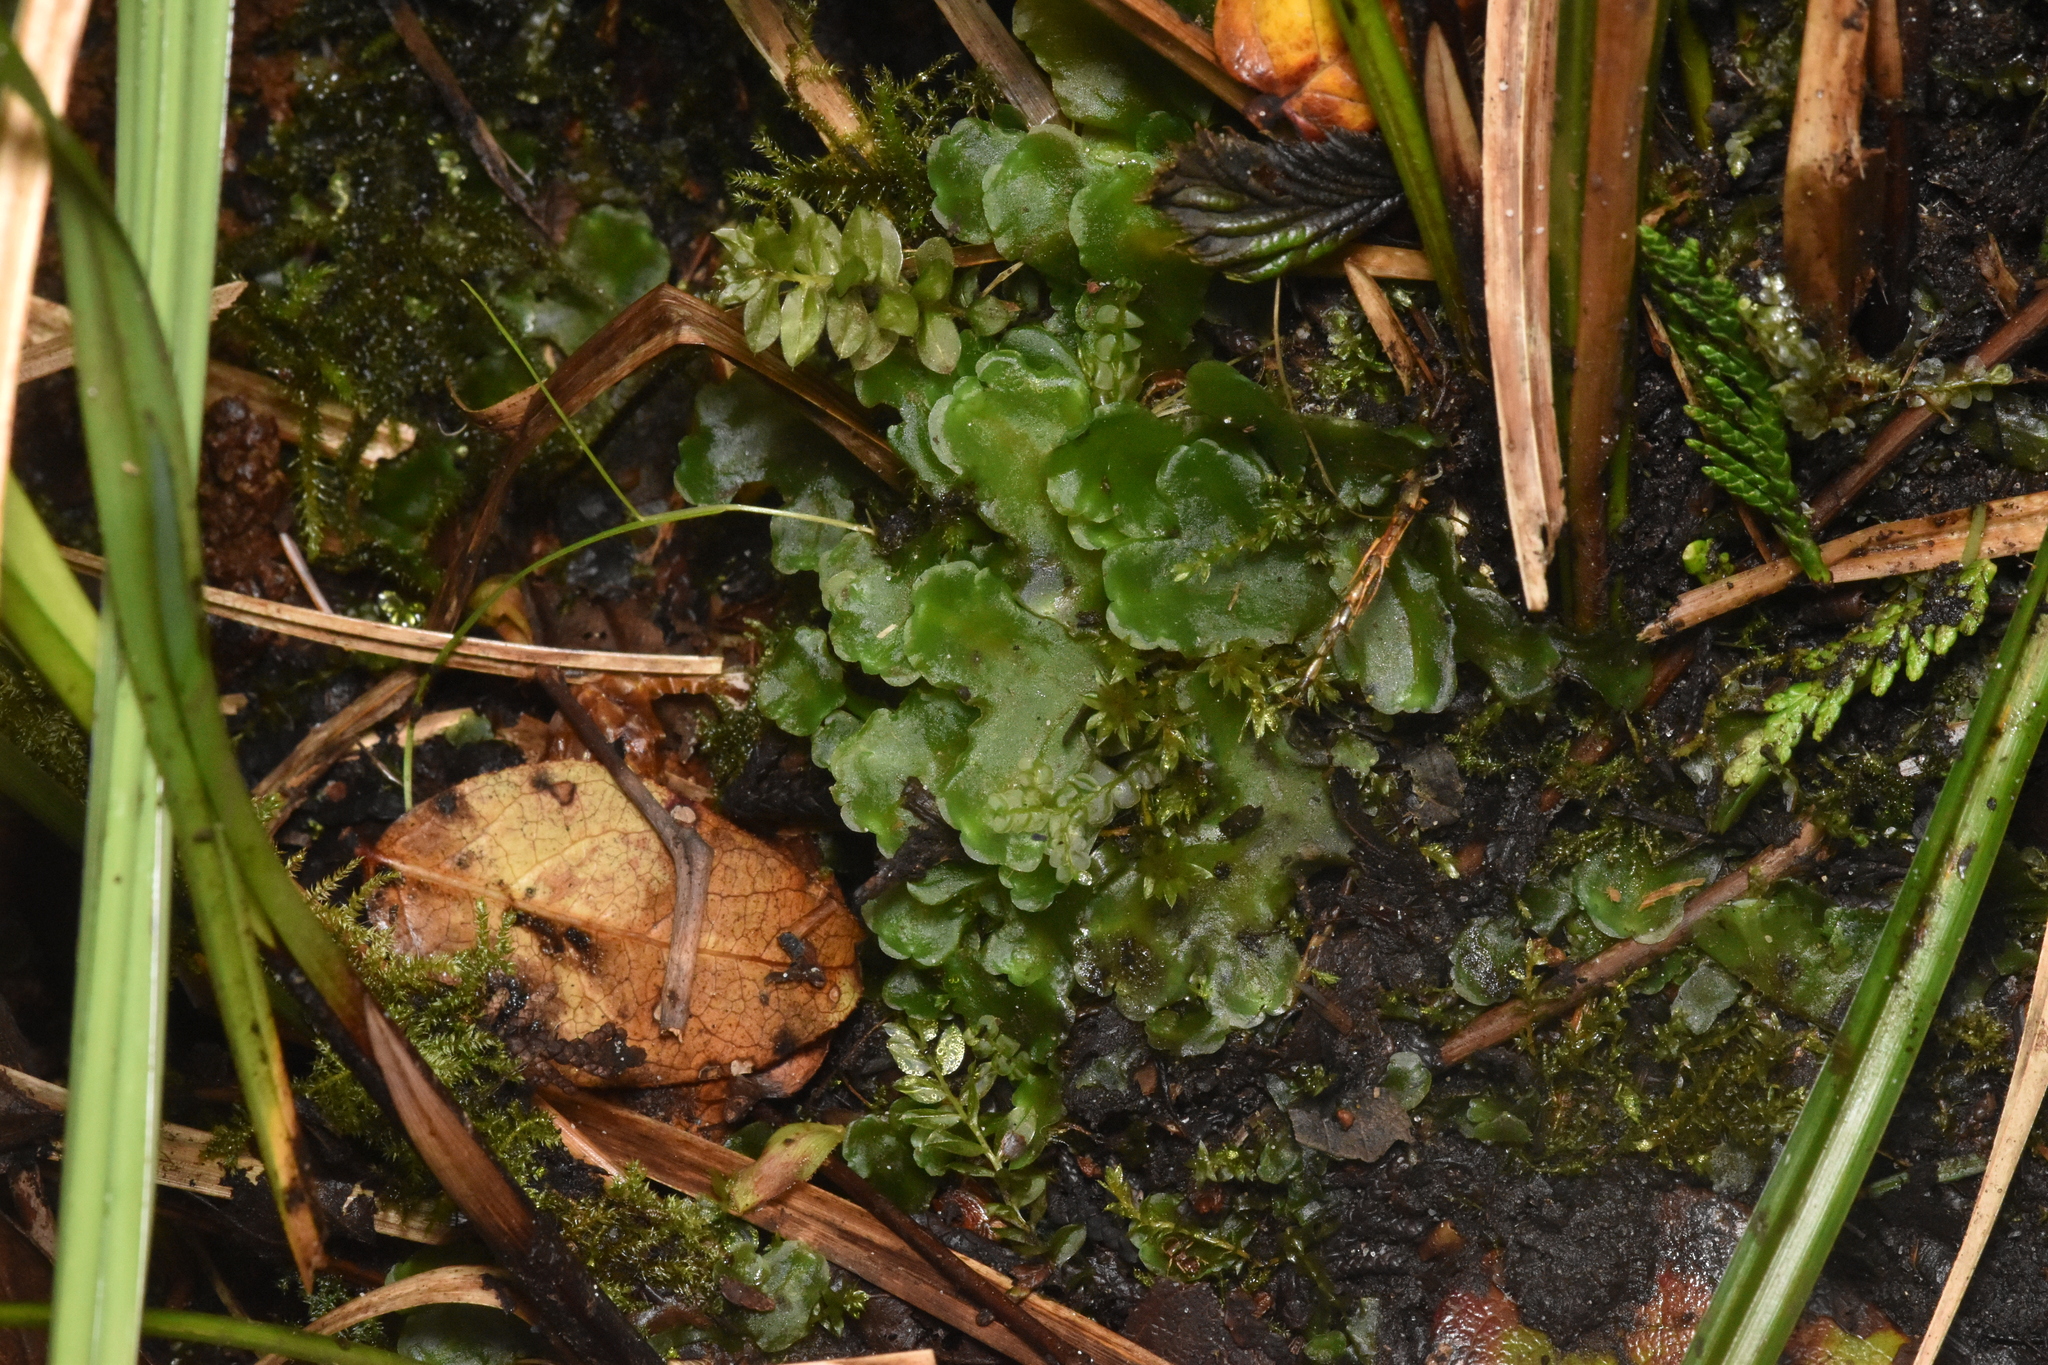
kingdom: Plantae
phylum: Marchantiophyta
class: Jungermanniopsida
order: Pelliales
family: Pelliaceae
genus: Pellia
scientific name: Pellia neesiana
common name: Nees  pellia
